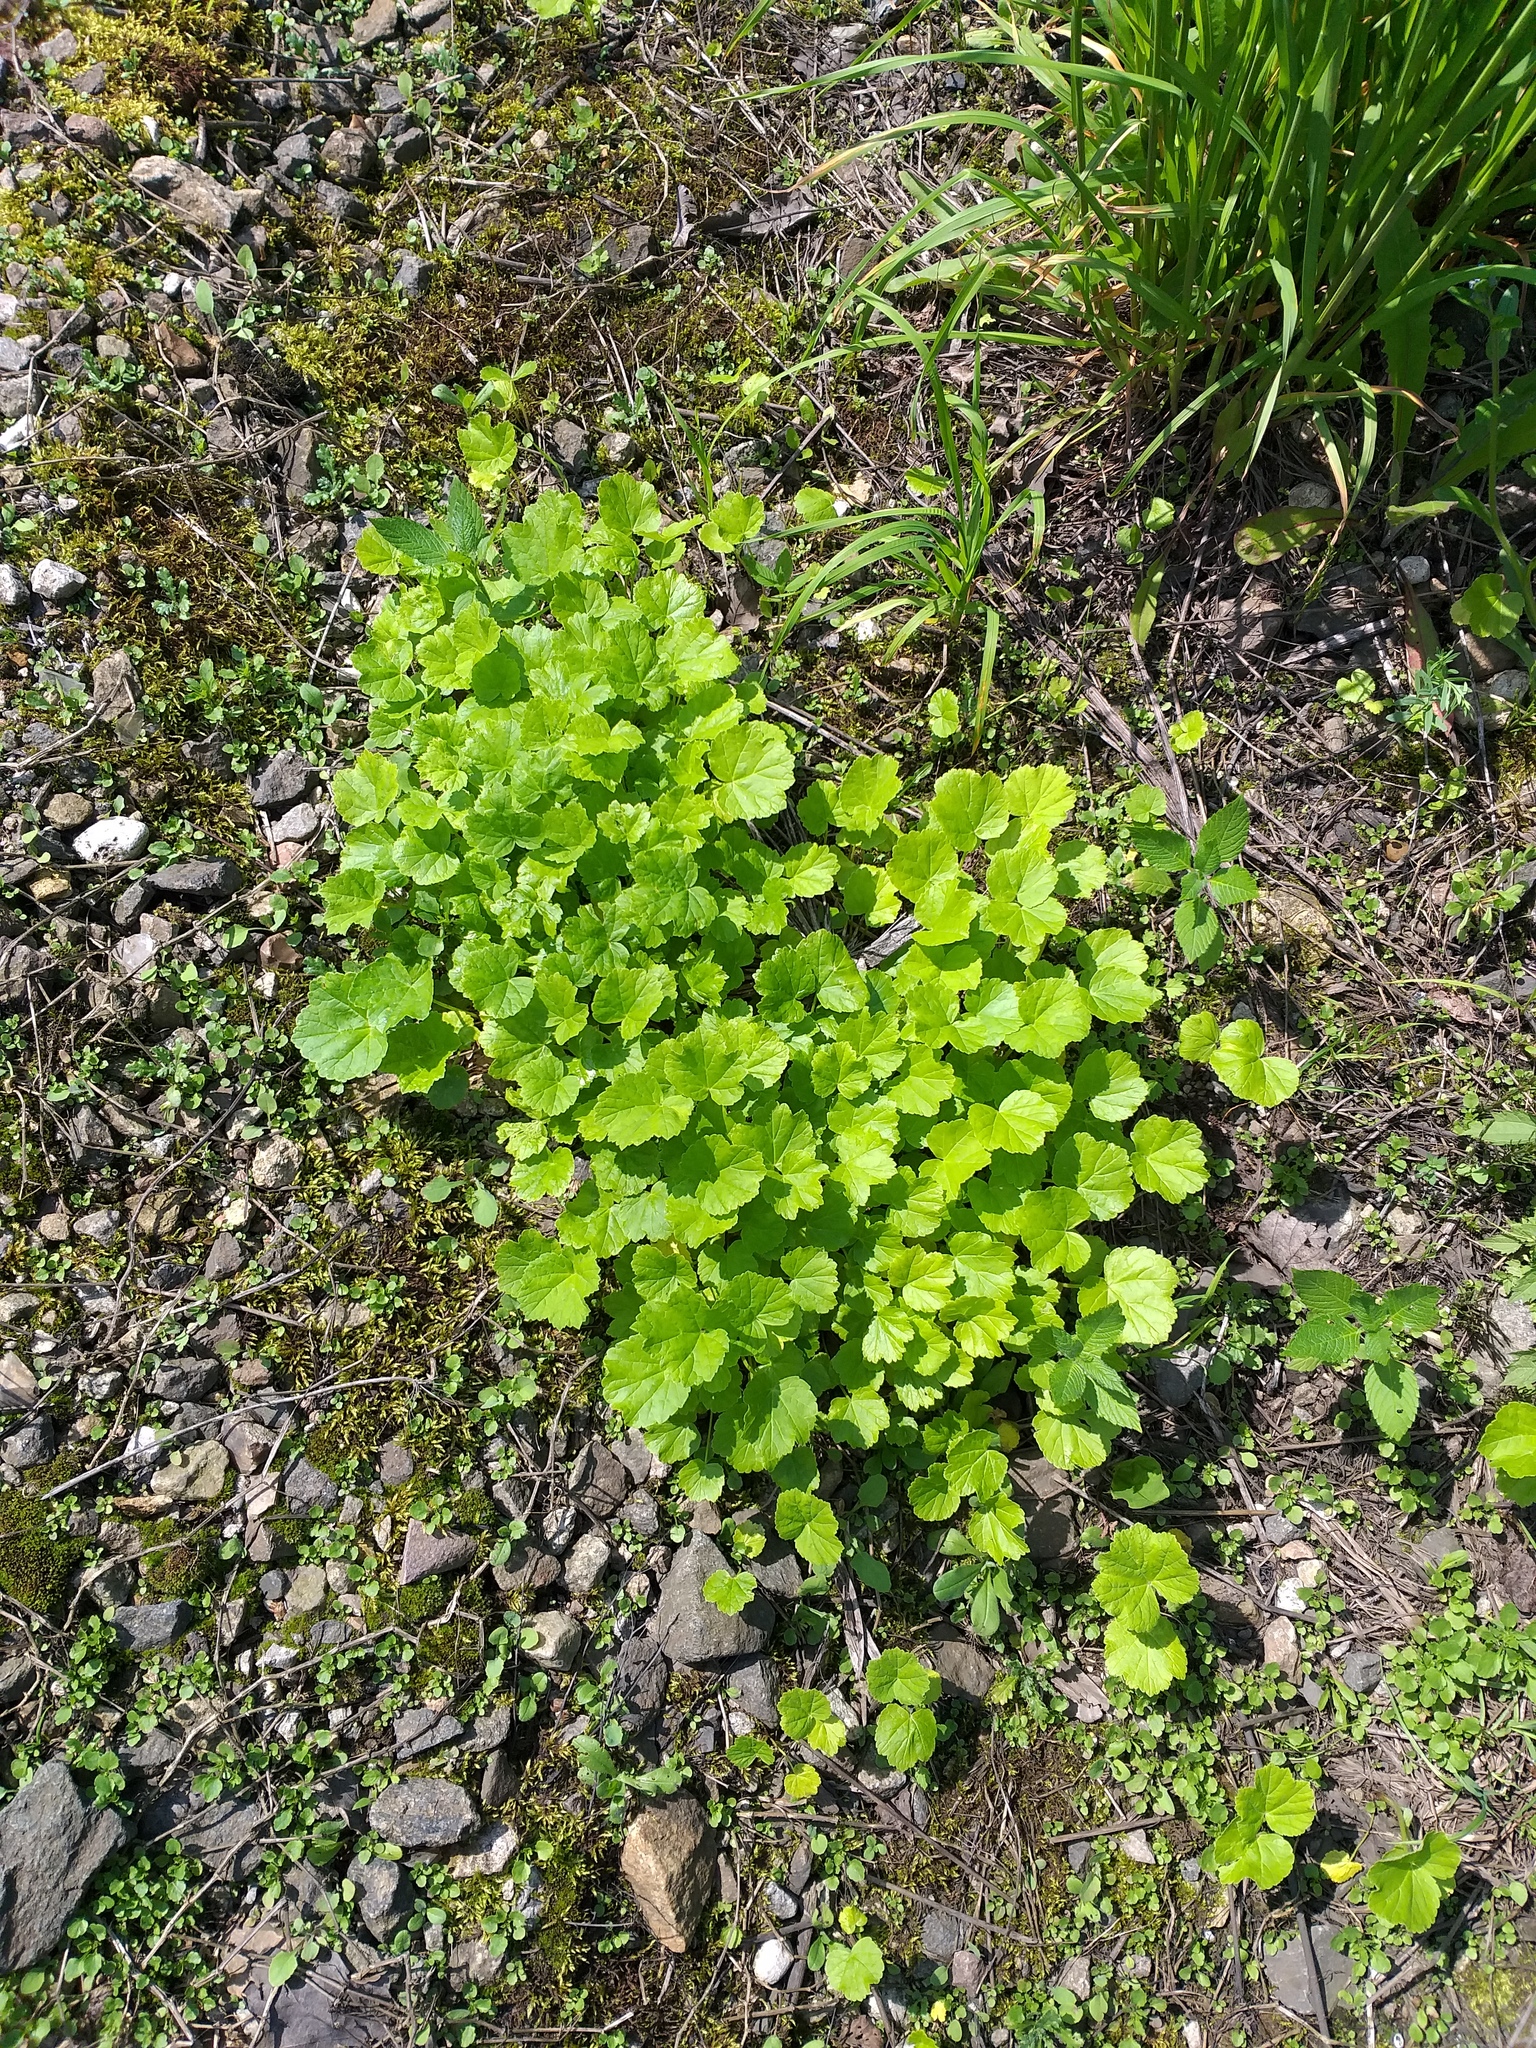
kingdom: Plantae
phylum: Tracheophyta
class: Magnoliopsida
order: Apiales
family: Apiaceae
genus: Heracleum
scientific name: Heracleum sosnowskyi
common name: Sosnowsky's hogweed
